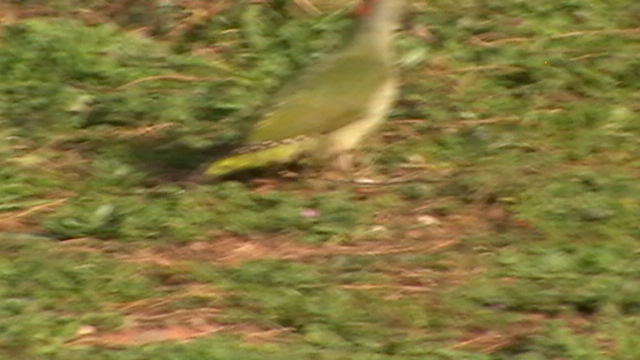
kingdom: Animalia
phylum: Chordata
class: Aves
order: Piciformes
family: Picidae
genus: Picus
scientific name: Picus sharpei
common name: Iberian green woodpecker
